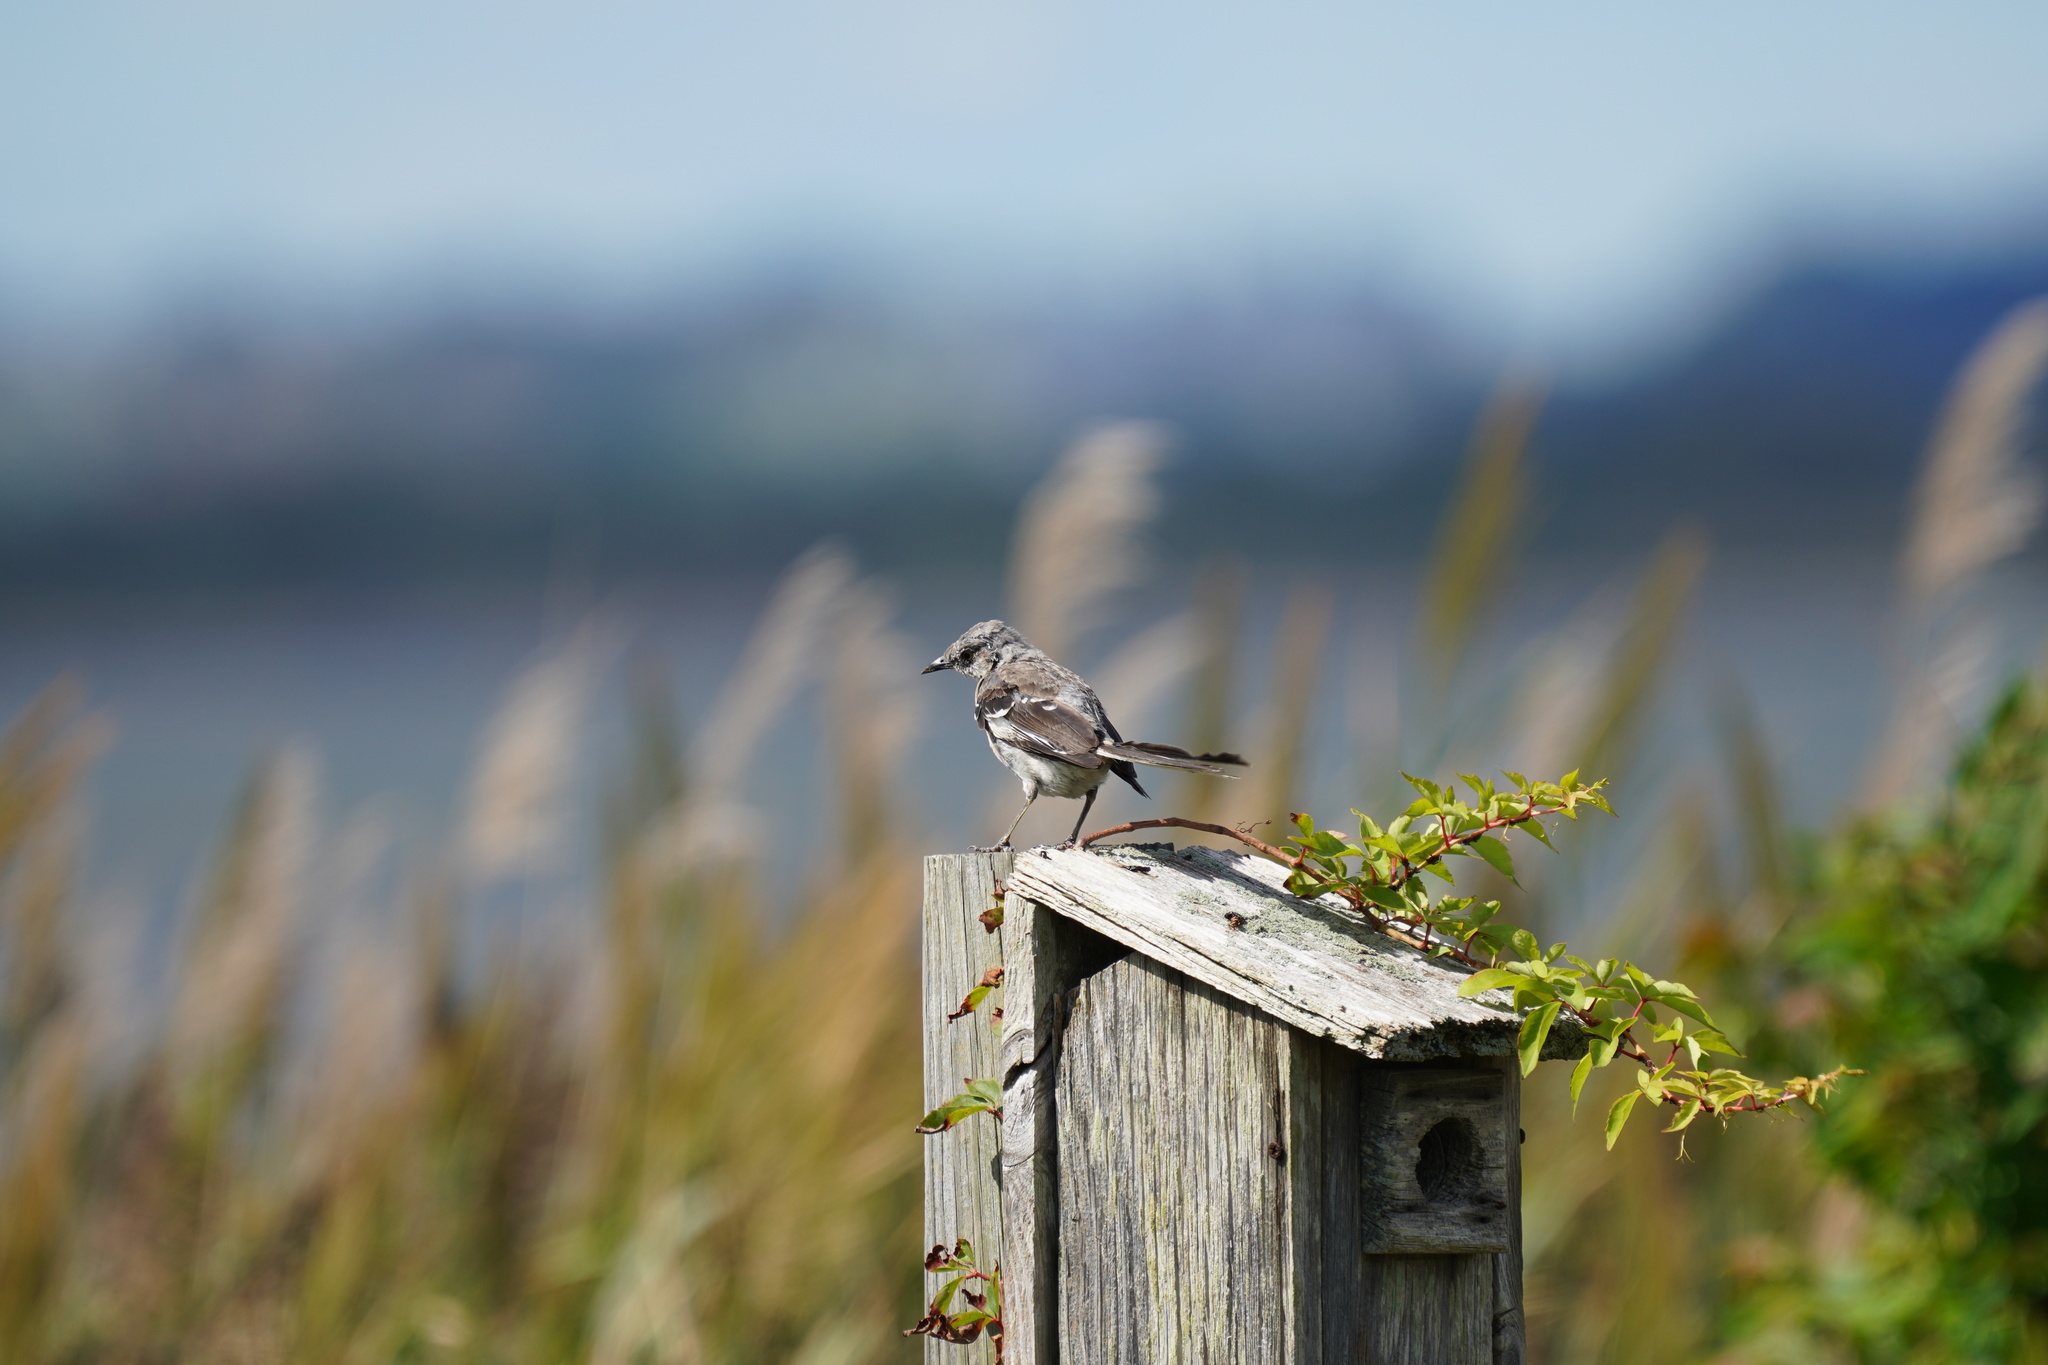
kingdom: Animalia
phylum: Chordata
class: Aves
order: Passeriformes
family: Mimidae
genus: Mimus
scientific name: Mimus polyglottos
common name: Northern mockingbird
